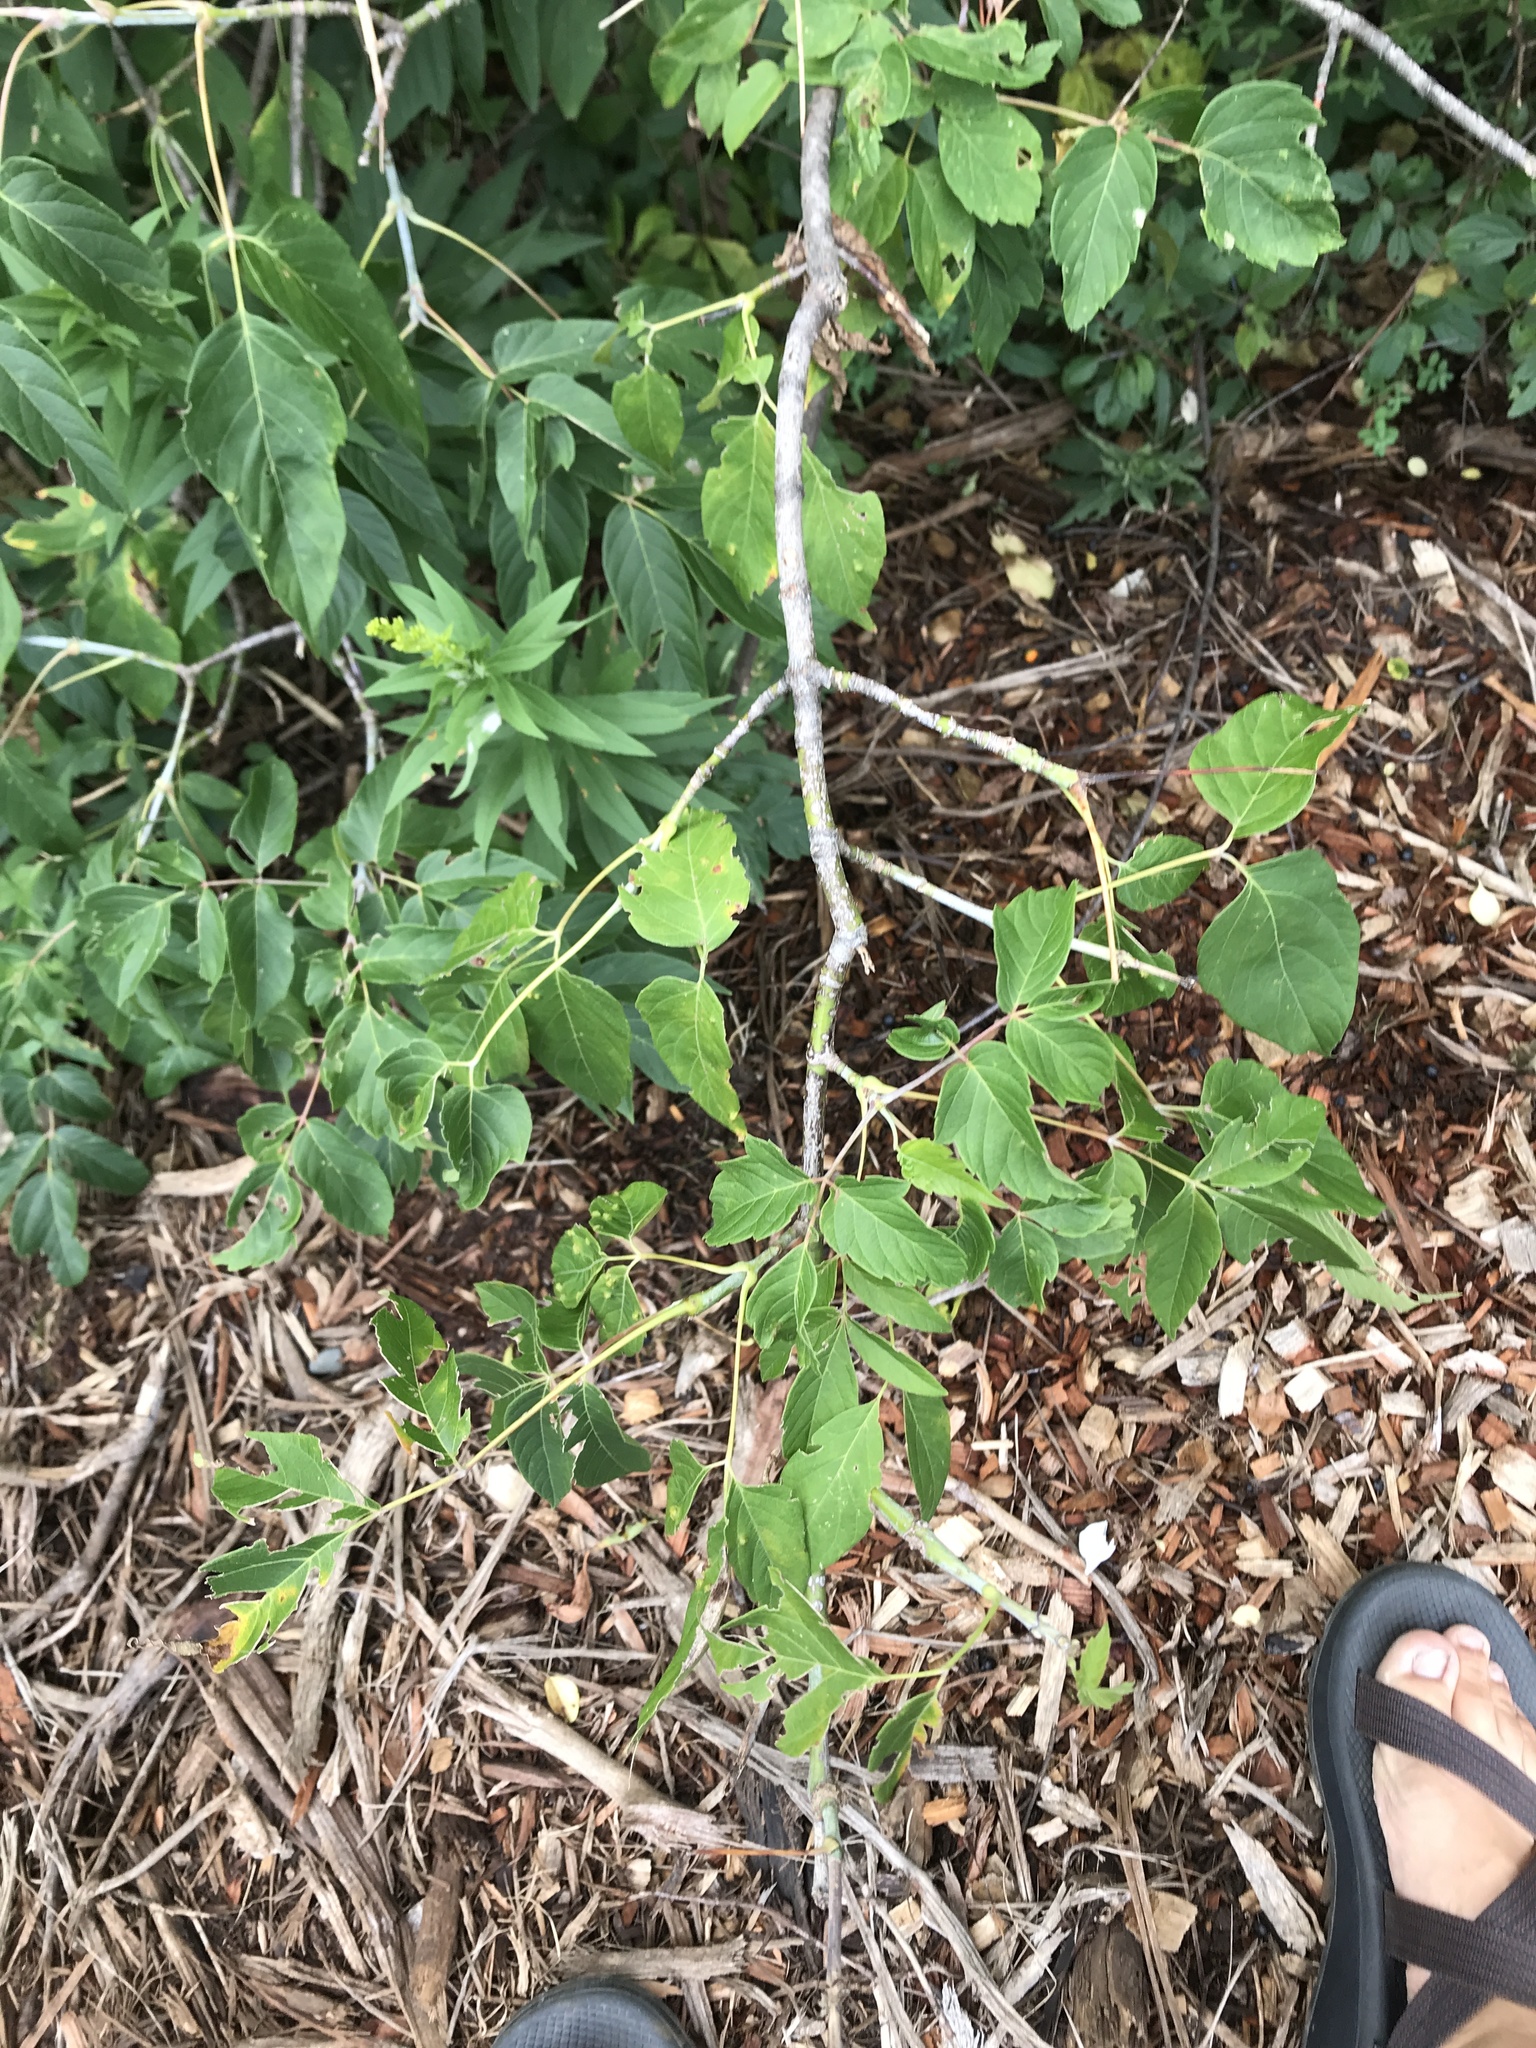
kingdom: Plantae
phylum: Tracheophyta
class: Magnoliopsida
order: Sapindales
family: Sapindaceae
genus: Acer
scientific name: Acer negundo
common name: Ashleaf maple
